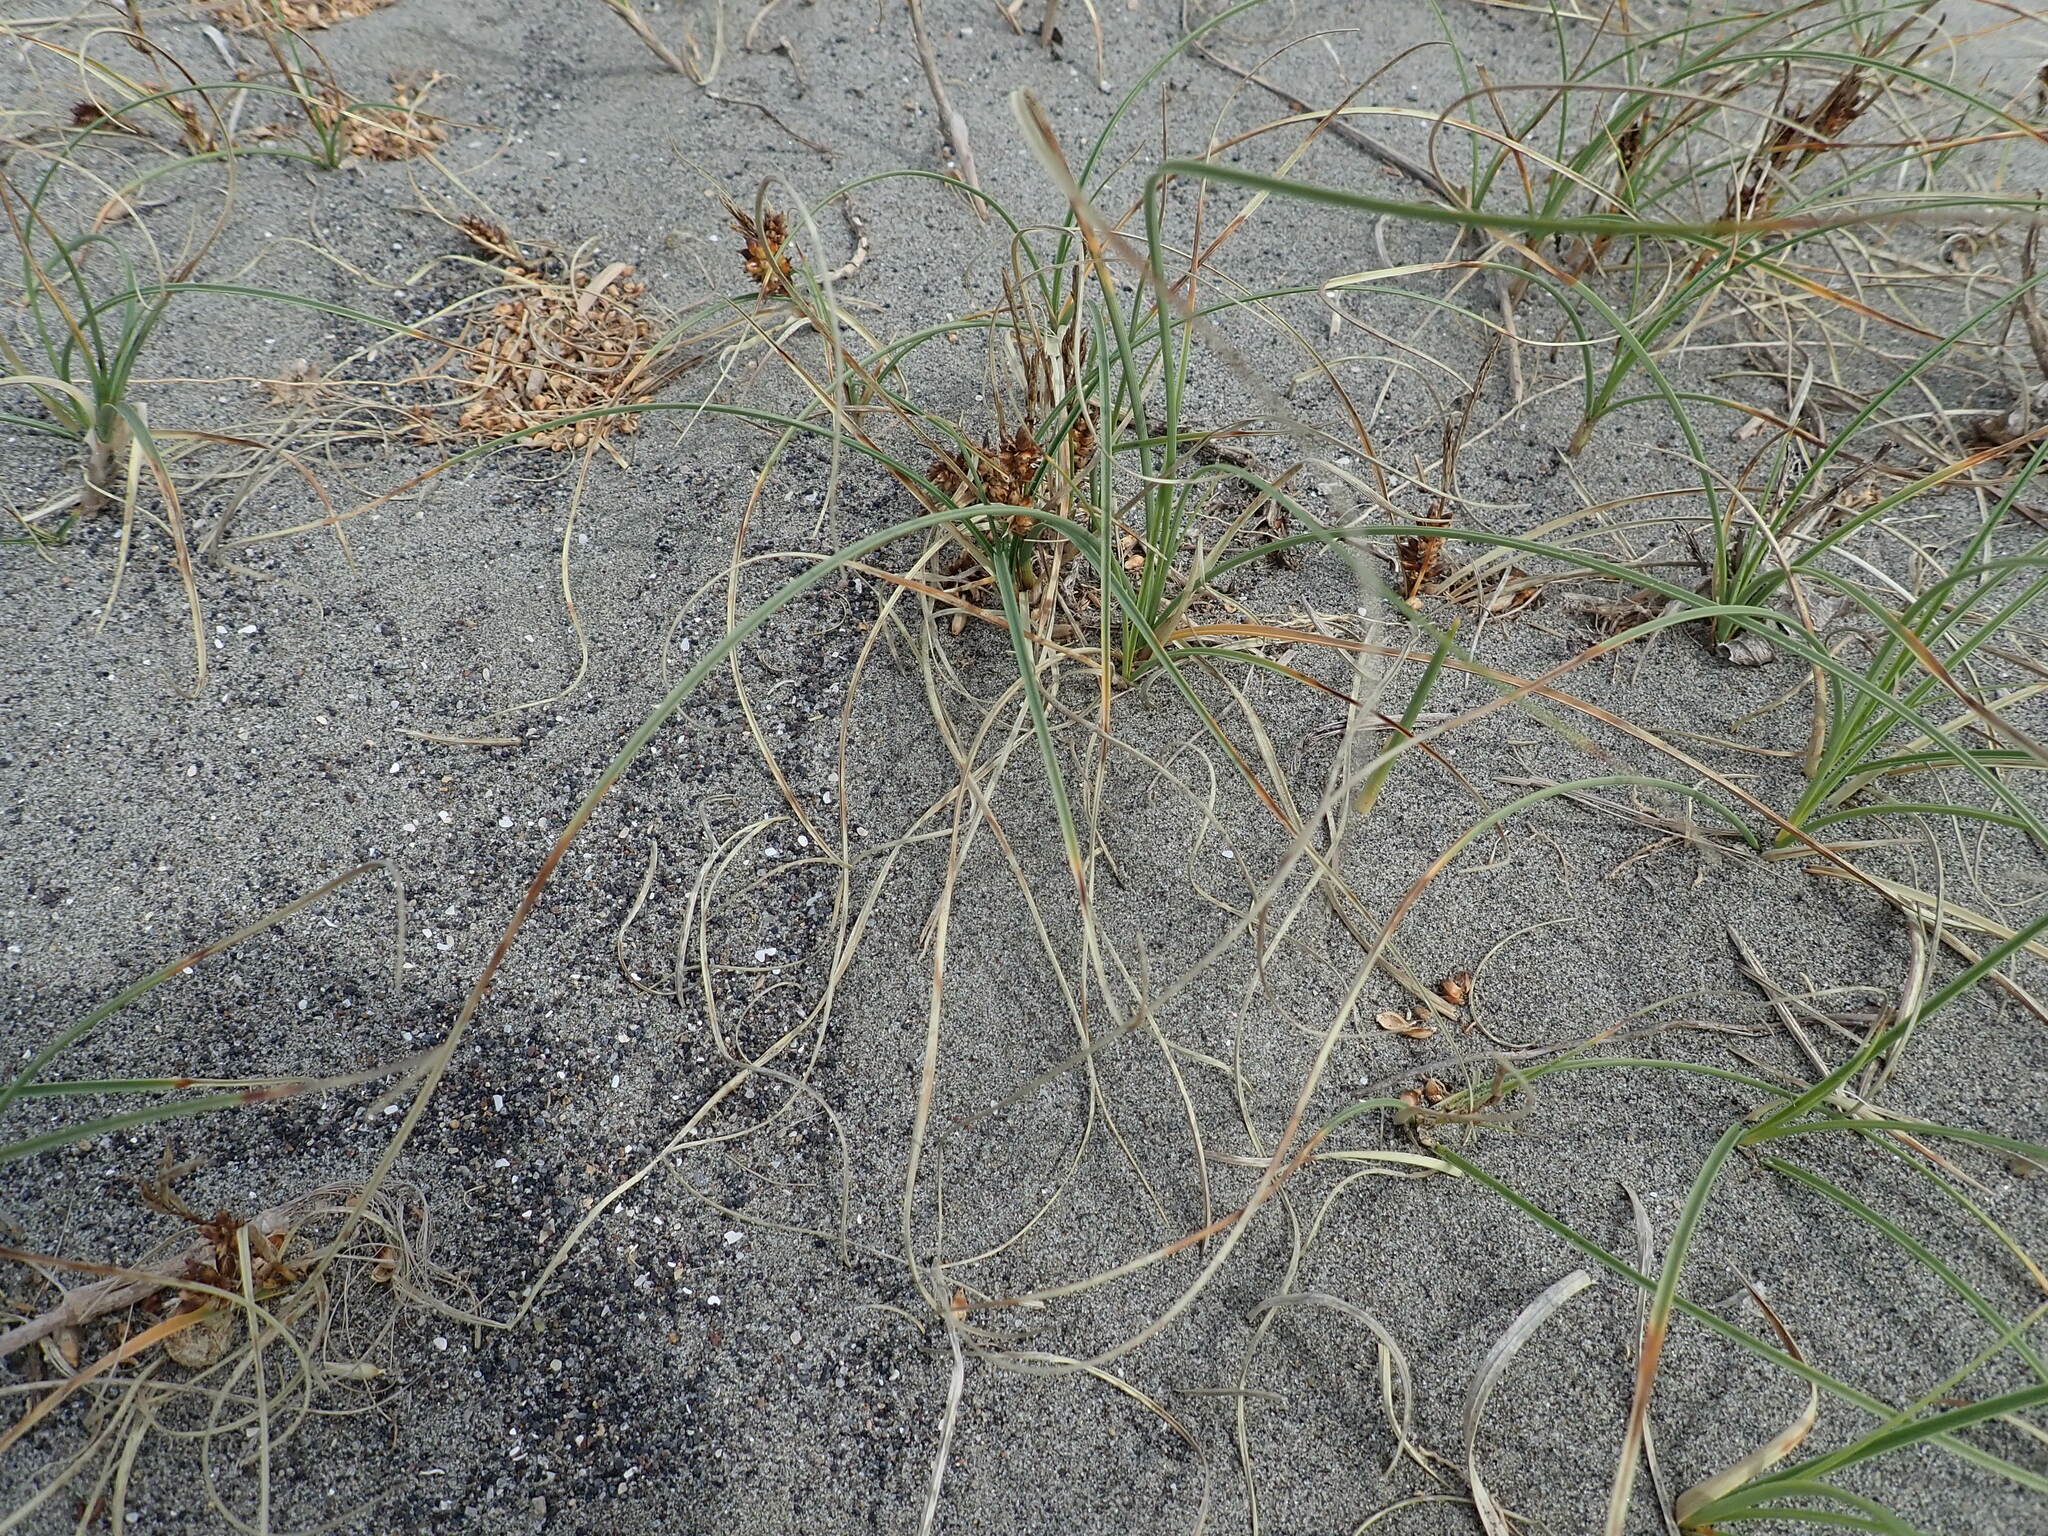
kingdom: Plantae
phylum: Tracheophyta
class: Liliopsida
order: Poales
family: Cyperaceae
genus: Carex
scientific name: Carex pumila
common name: Dwarf sedge
